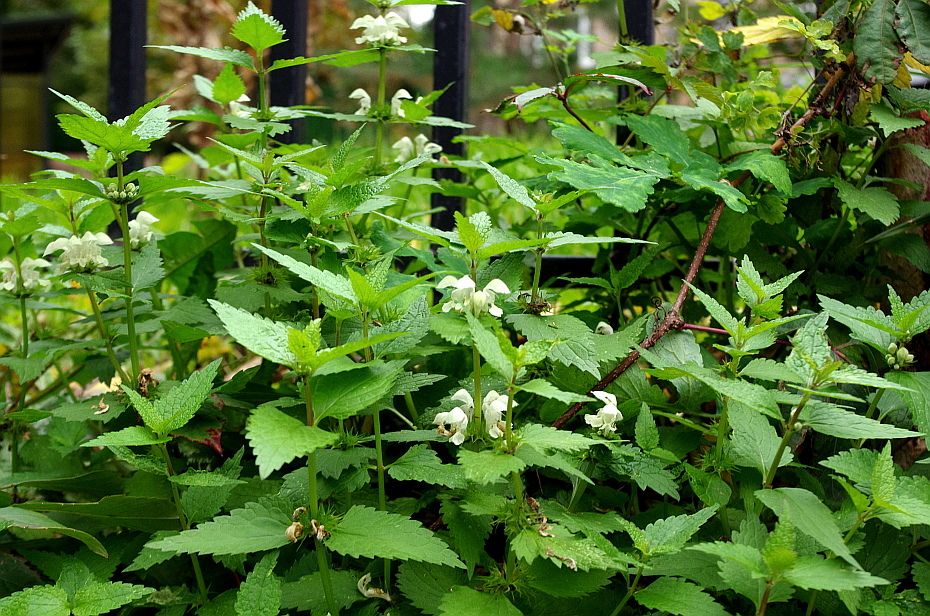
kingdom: Plantae
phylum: Tracheophyta
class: Magnoliopsida
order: Lamiales
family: Lamiaceae
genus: Lamium
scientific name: Lamium album
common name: White dead-nettle
